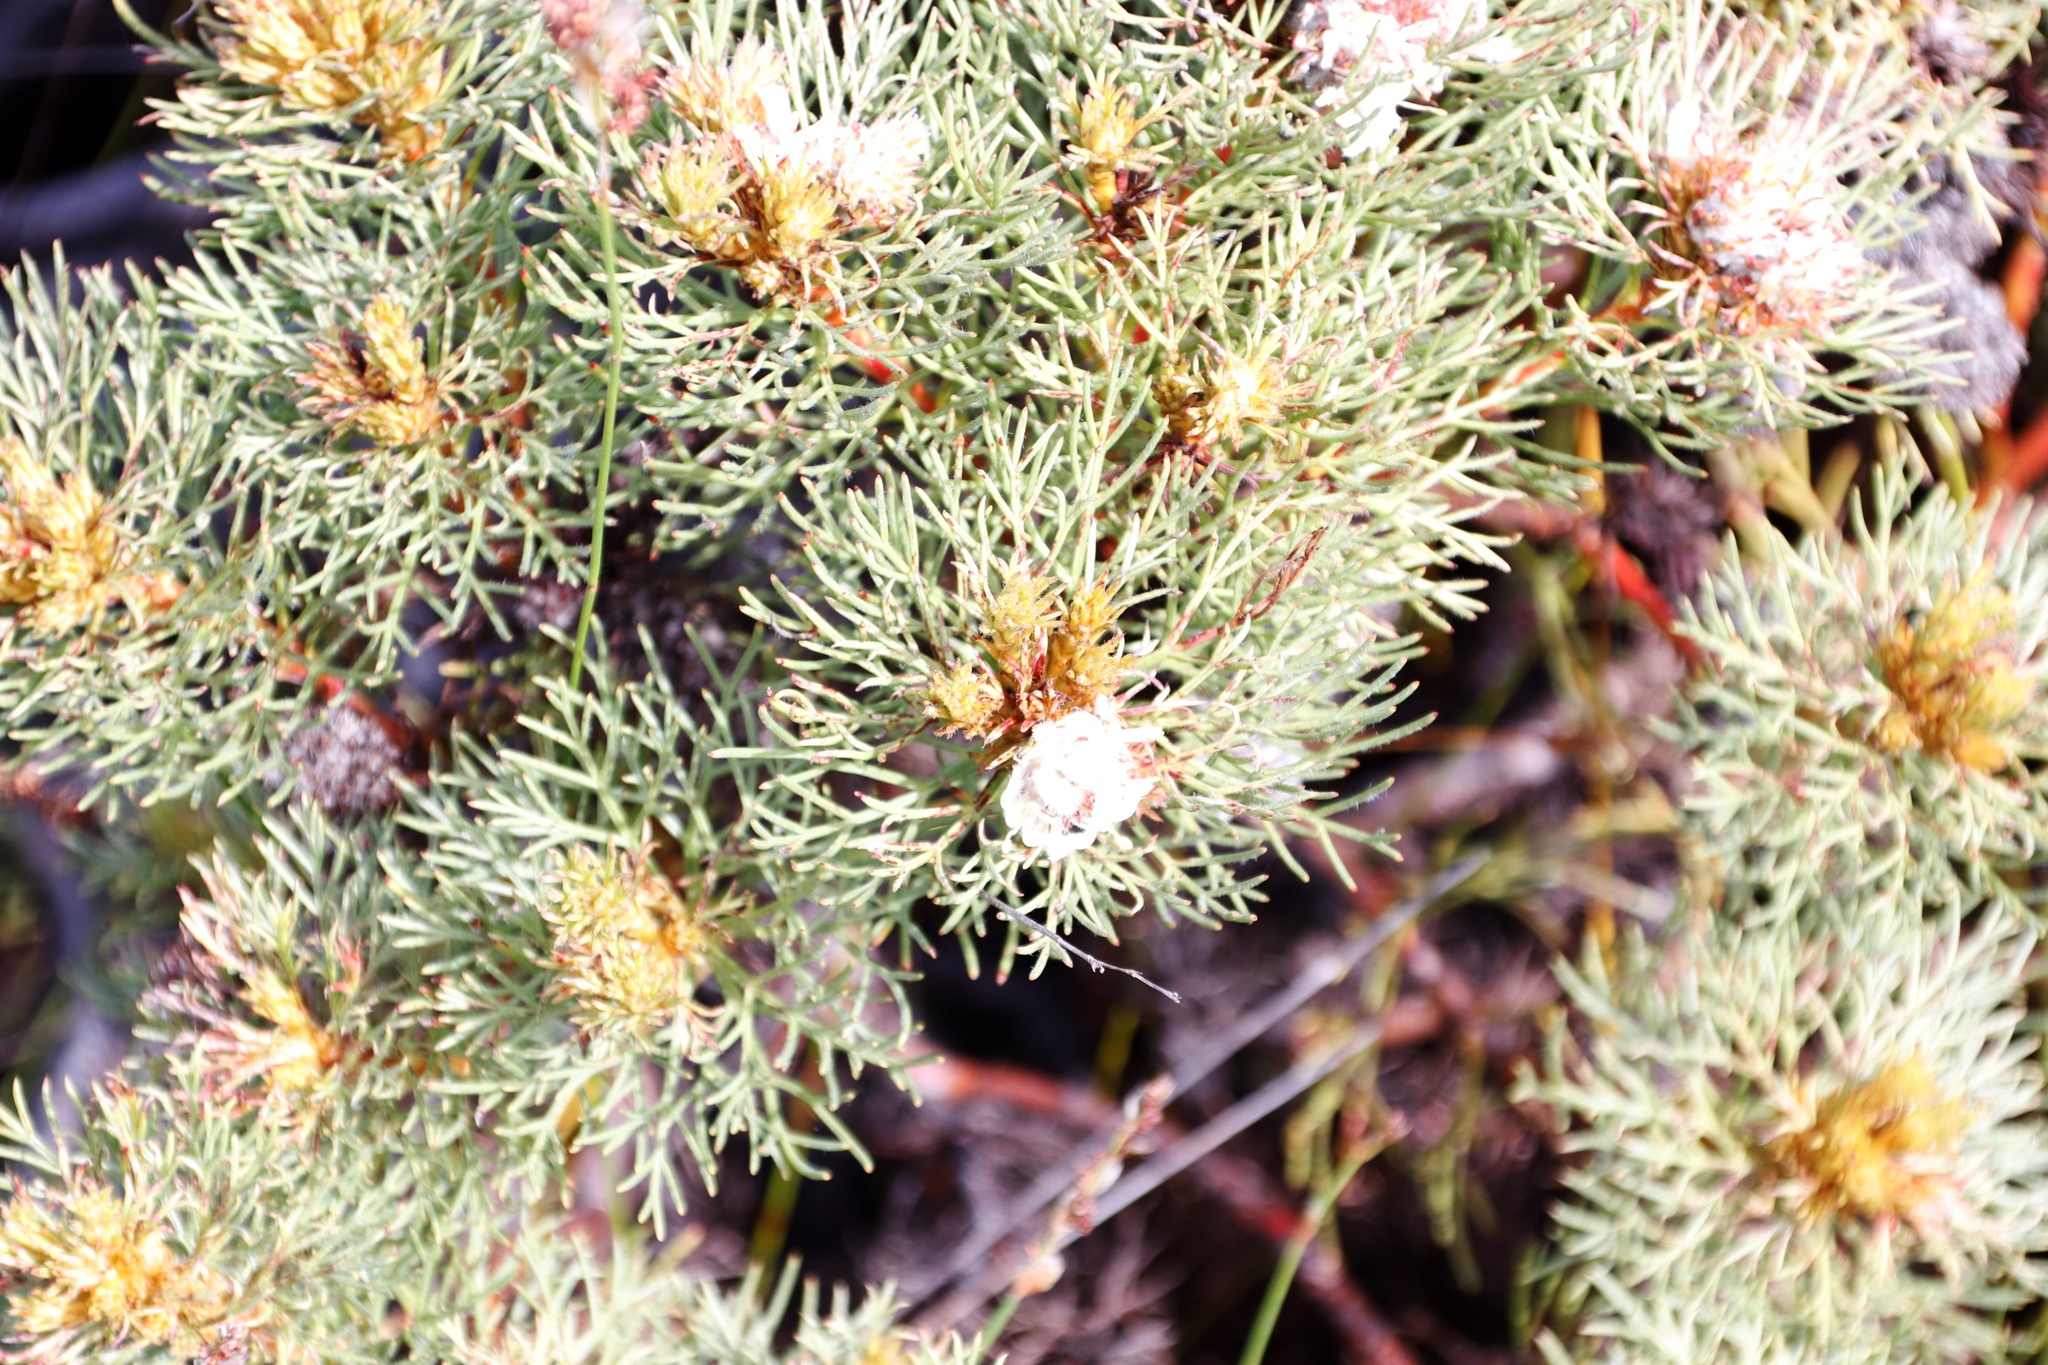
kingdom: Plantae
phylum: Tracheophyta
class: Magnoliopsida
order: Proteales
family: Proteaceae
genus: Serruria
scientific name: Serruria glomerata
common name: Cluster spiderhead
